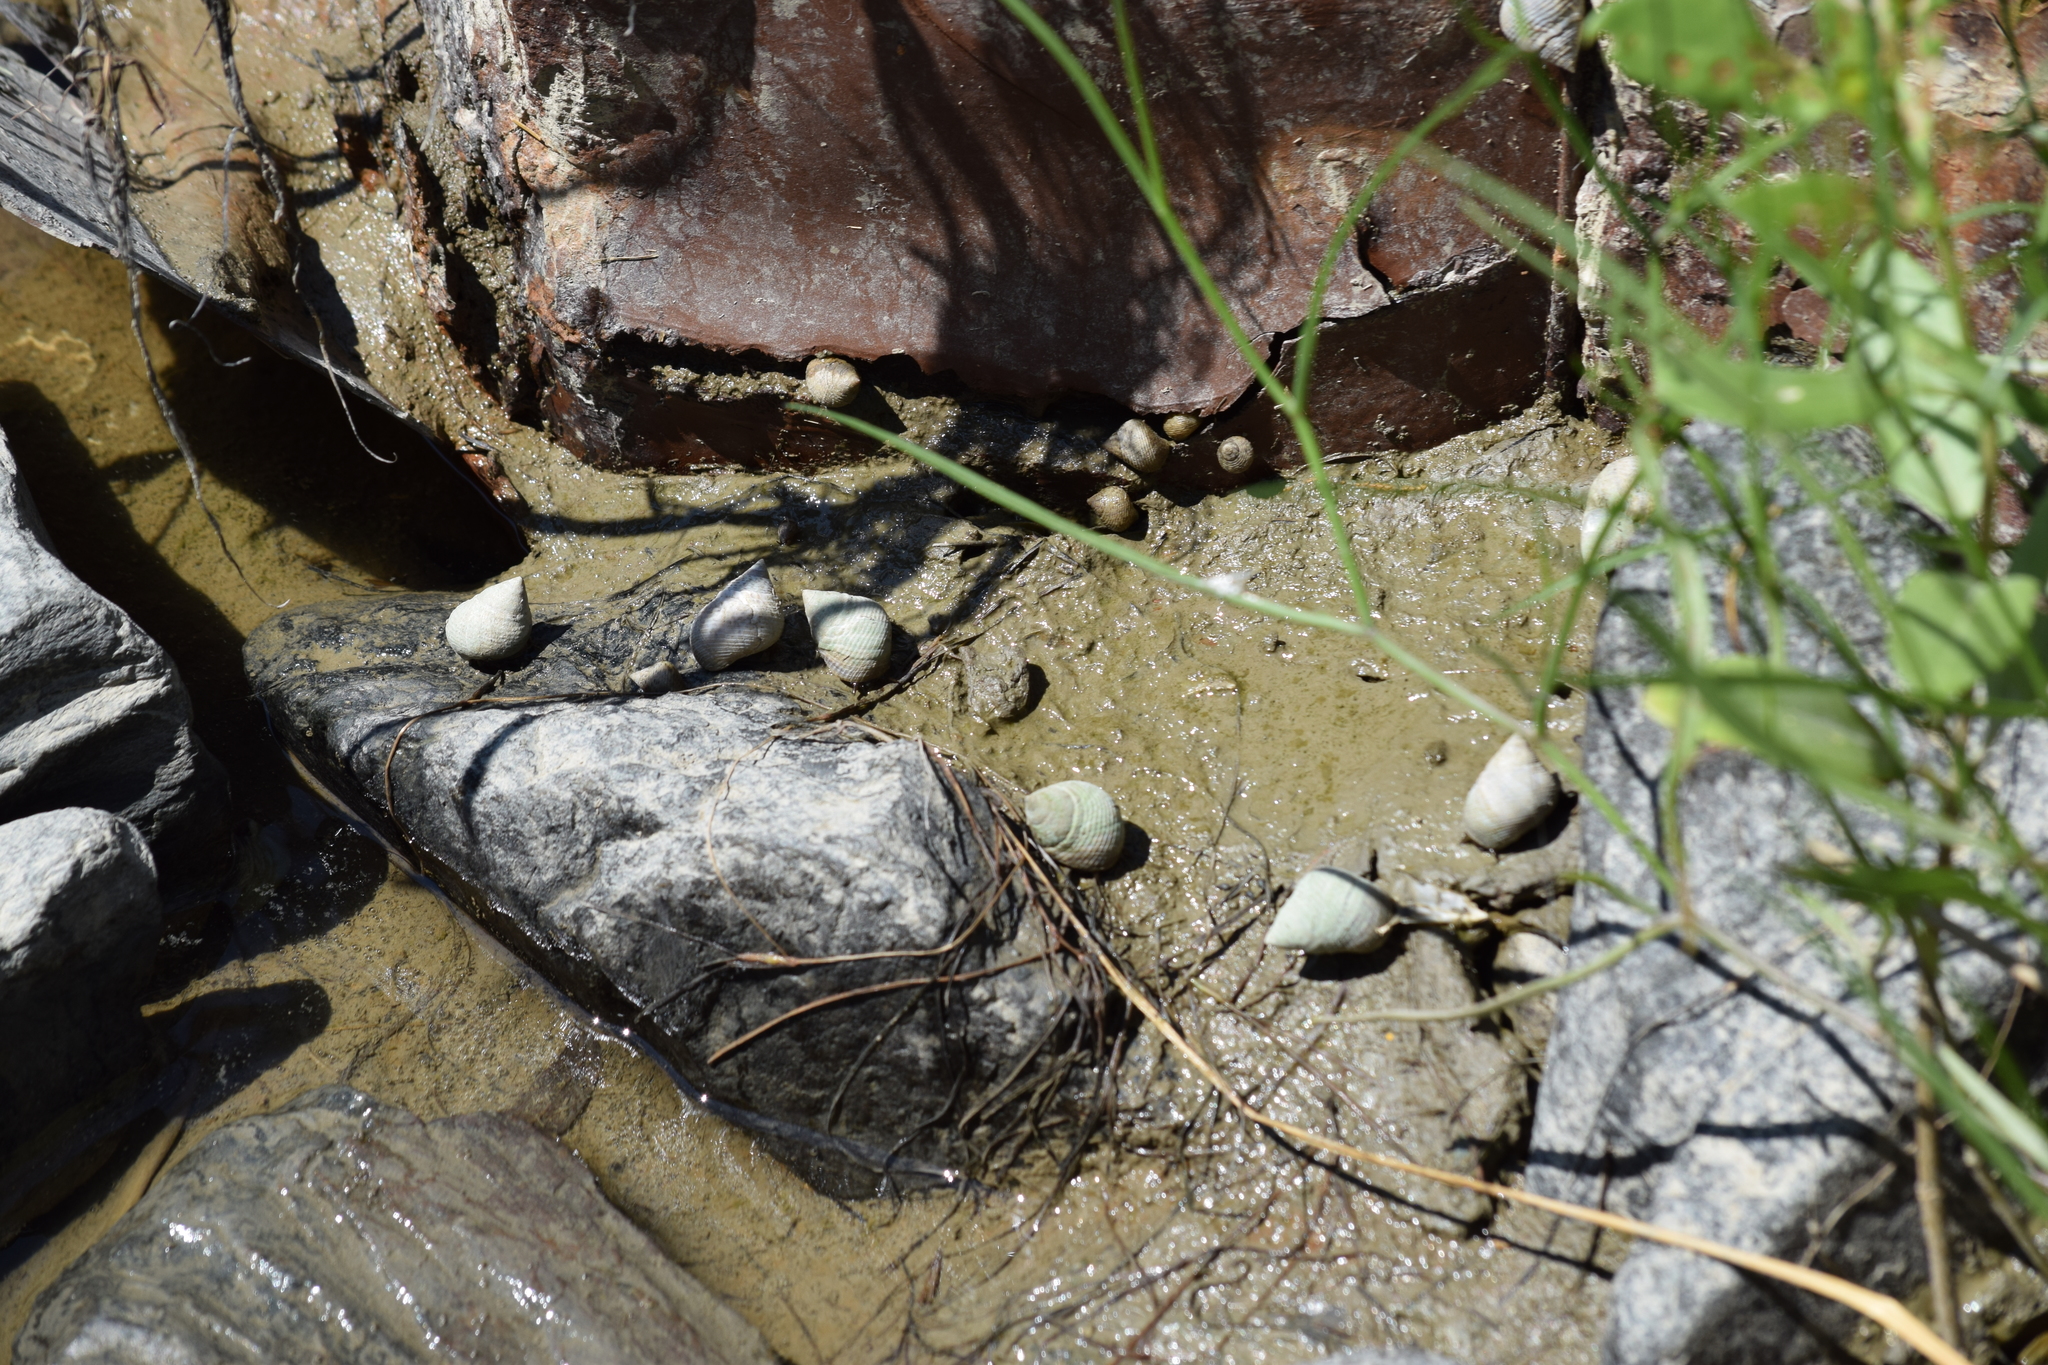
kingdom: Animalia
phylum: Mollusca
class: Gastropoda
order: Littorinimorpha
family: Littorinidae
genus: Littoraria
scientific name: Littoraria irrorata
